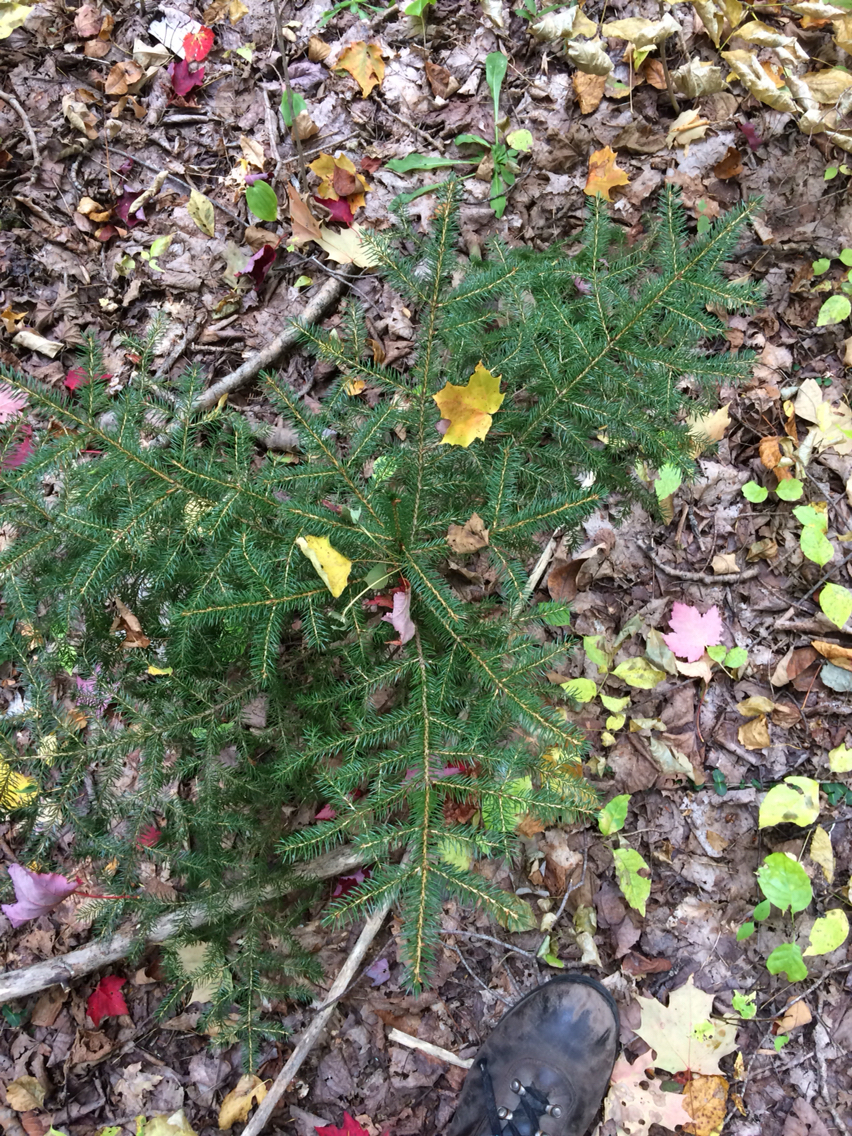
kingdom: Plantae
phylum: Tracheophyta
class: Pinopsida
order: Pinales
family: Pinaceae
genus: Picea
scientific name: Picea rubens
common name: Red spruce
